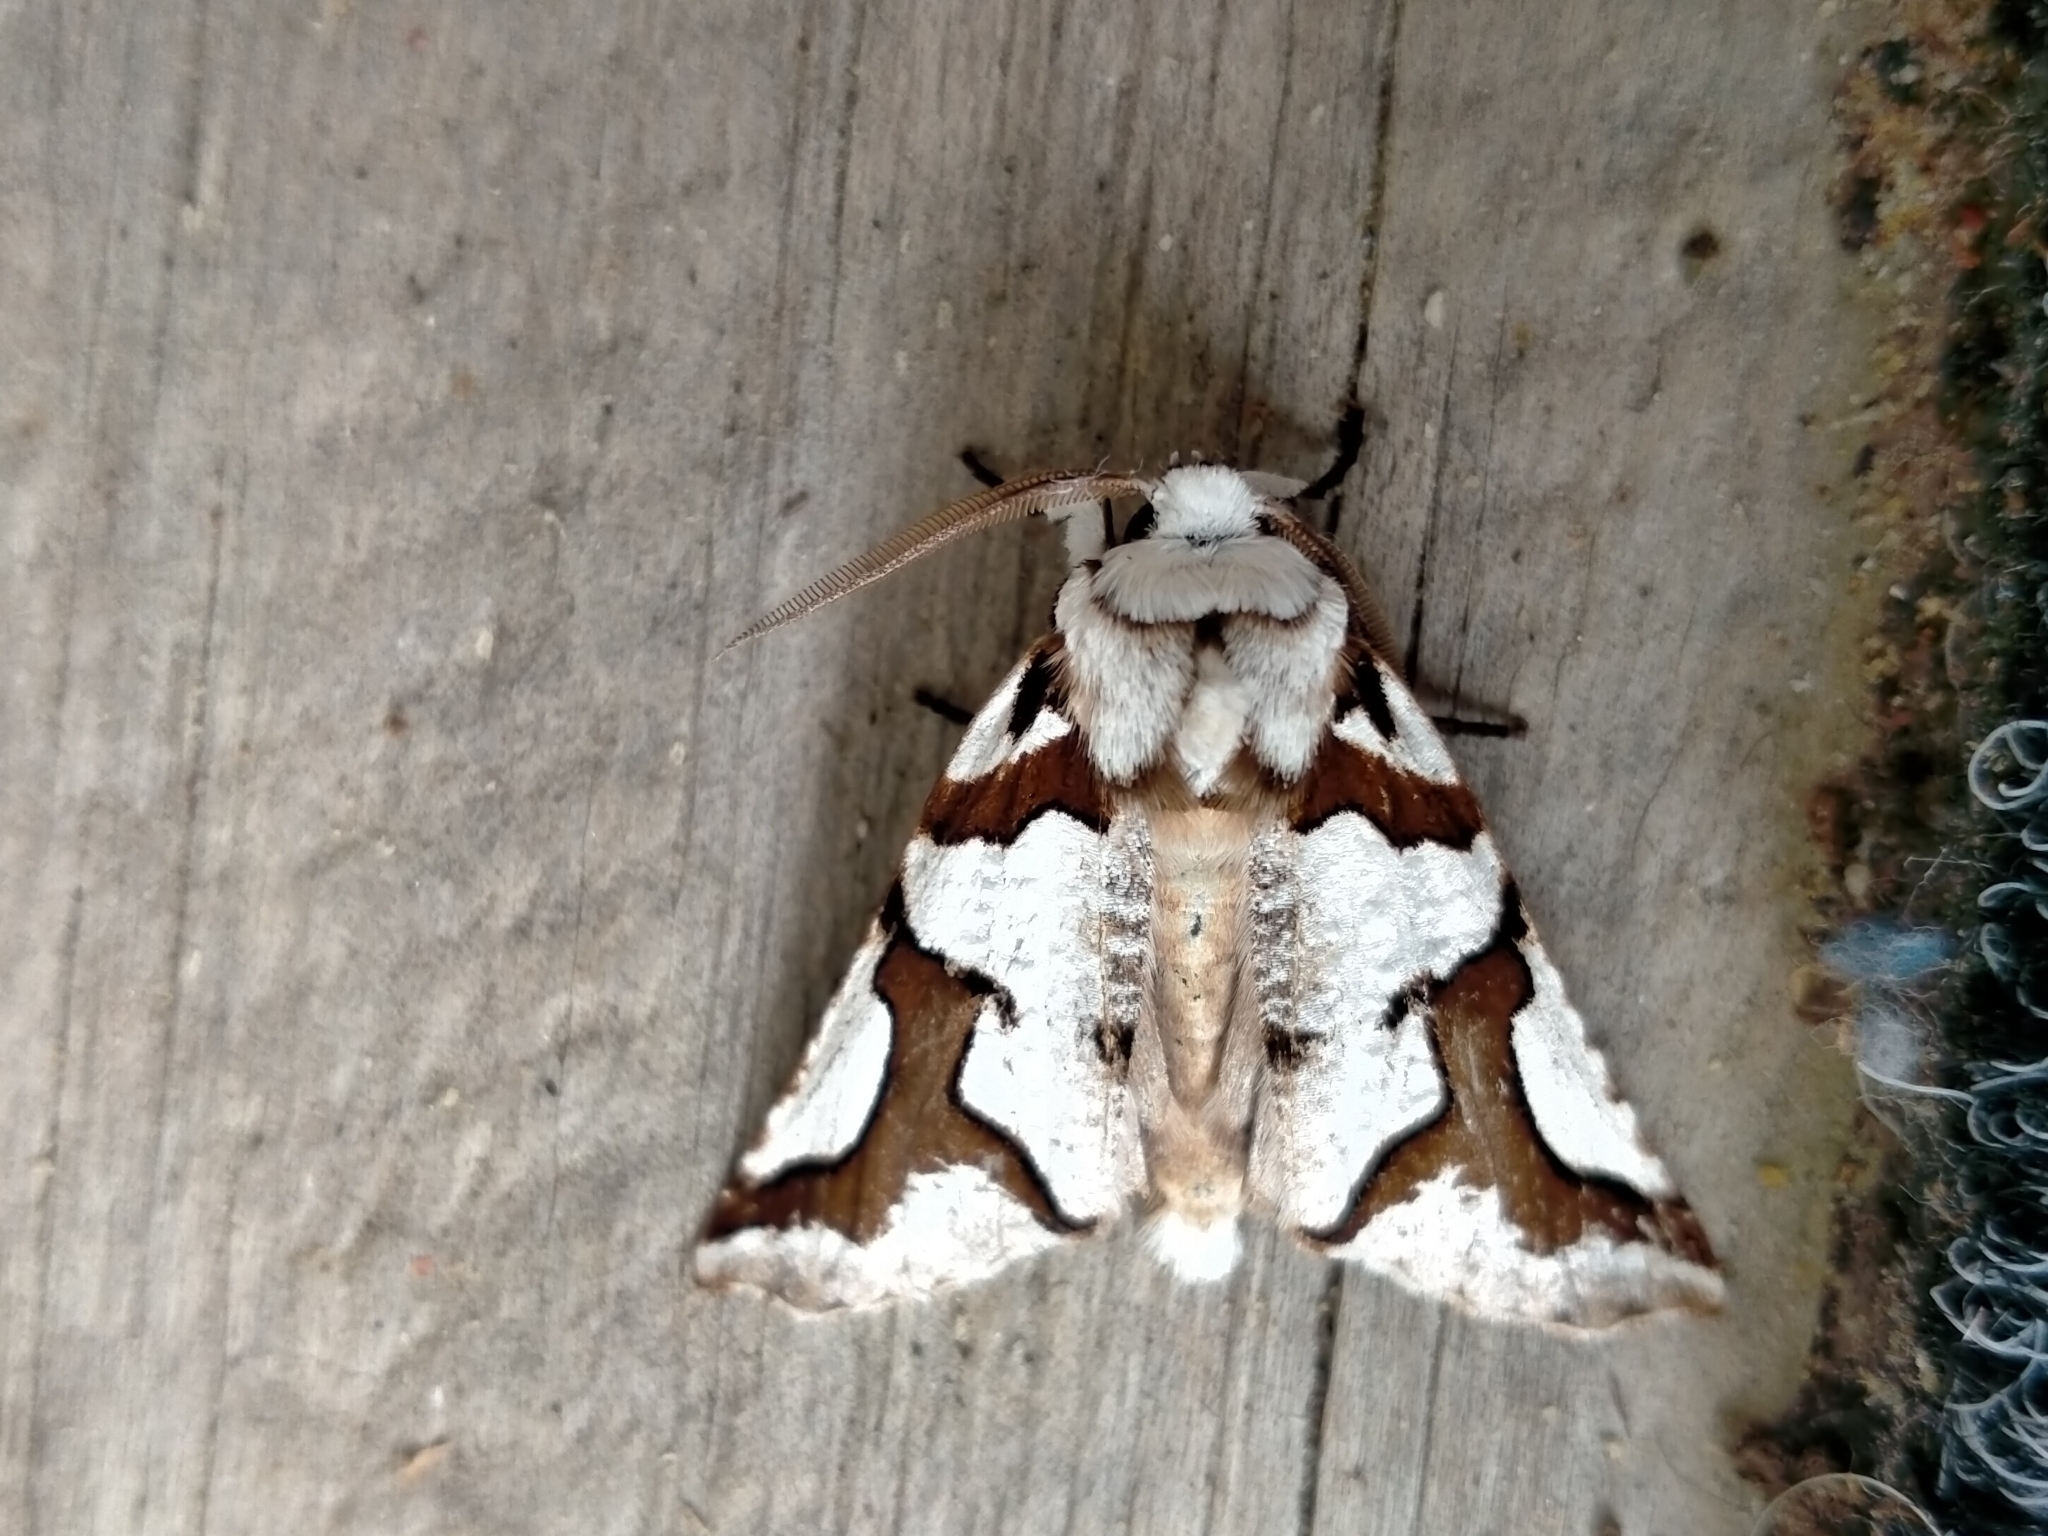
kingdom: Animalia
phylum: Arthropoda
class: Insecta
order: Lepidoptera
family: Geometridae
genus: Declana
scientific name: Declana
